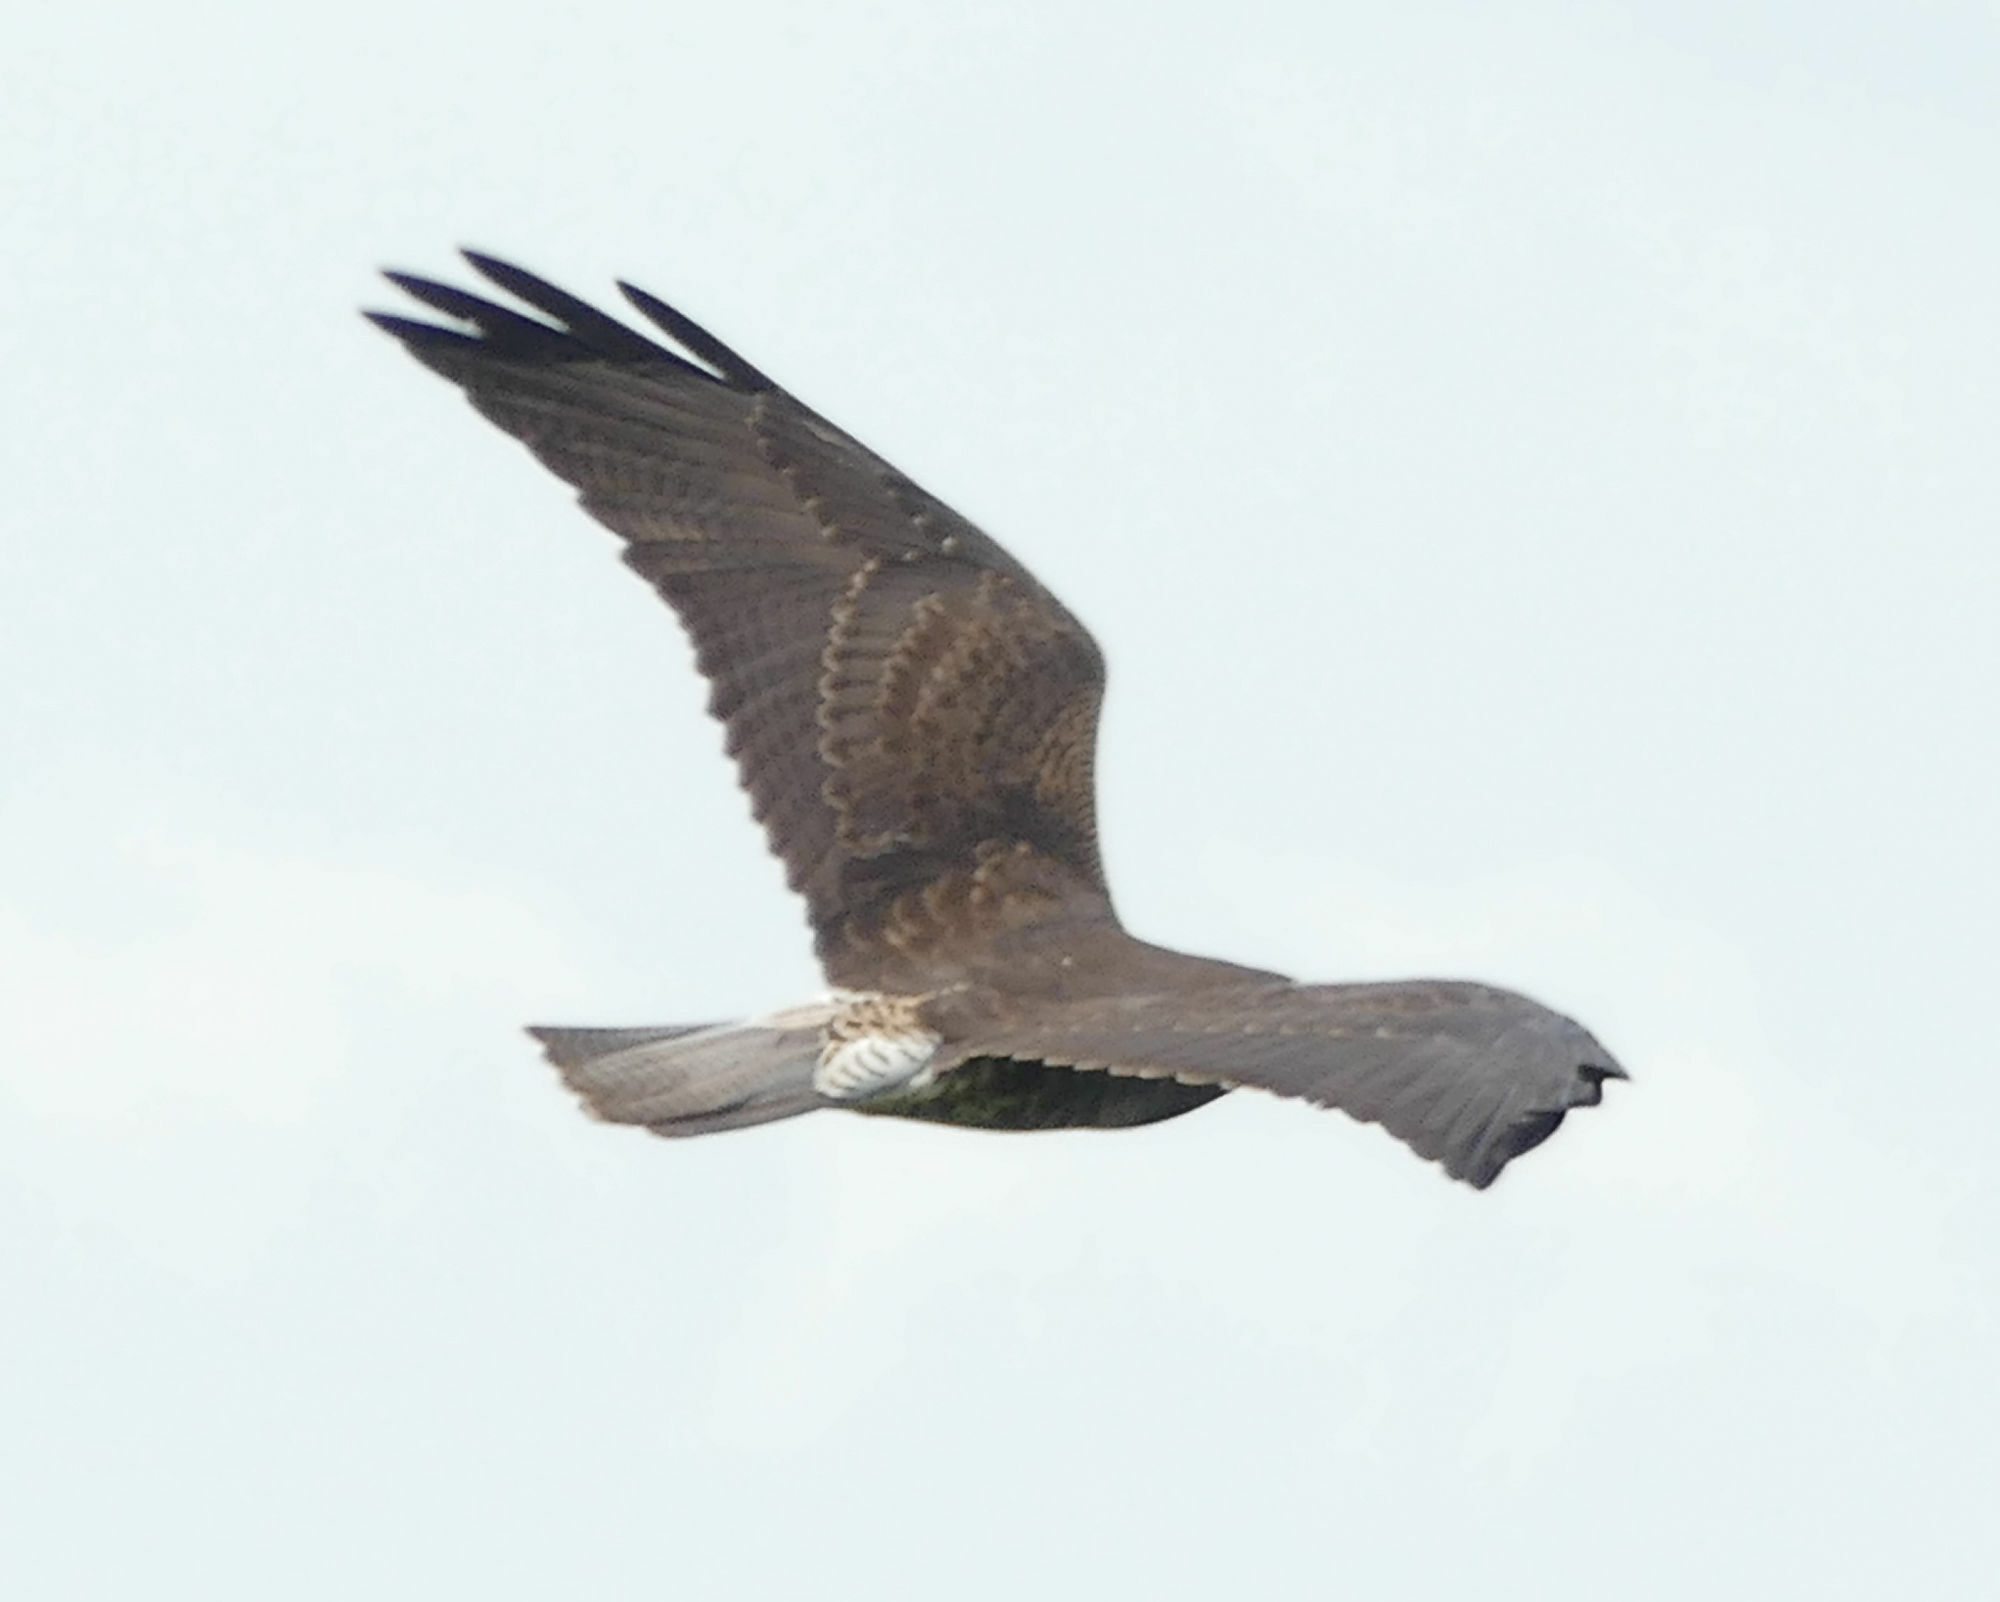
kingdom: Animalia
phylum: Chordata
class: Aves
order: Accipitriformes
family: Accipitridae
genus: Buteo
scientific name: Buteo albicaudatus
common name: White-tailed hawk
